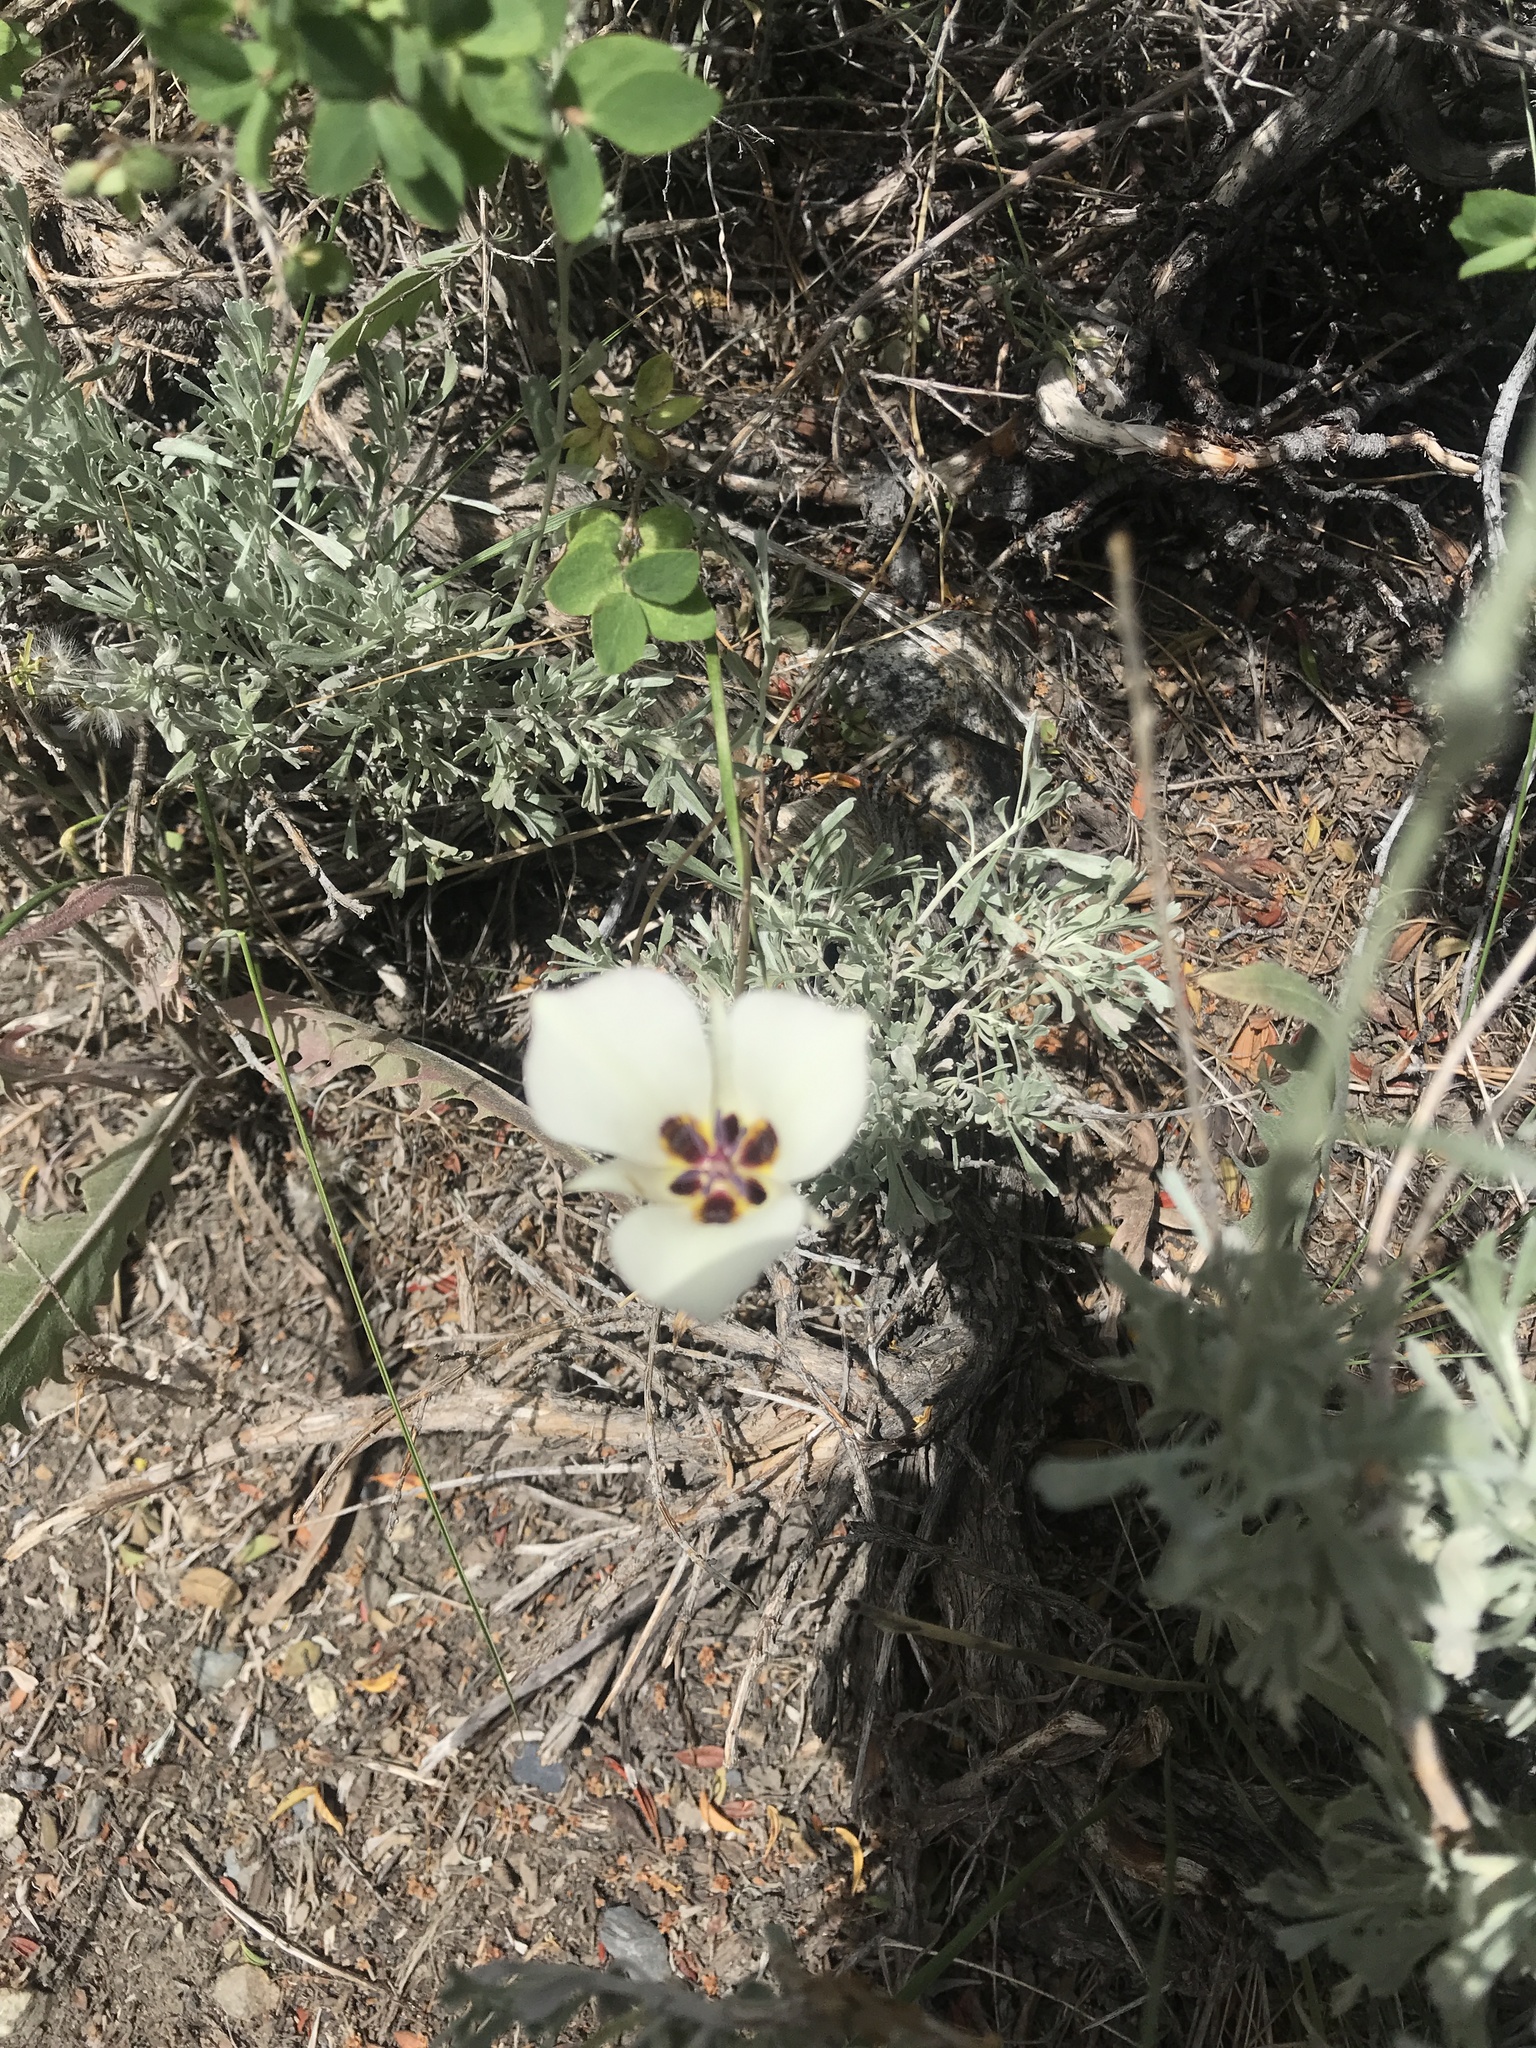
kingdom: Plantae
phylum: Tracheophyta
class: Liliopsida
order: Liliales
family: Liliaceae
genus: Calochortus
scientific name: Calochortus bruneaunis
